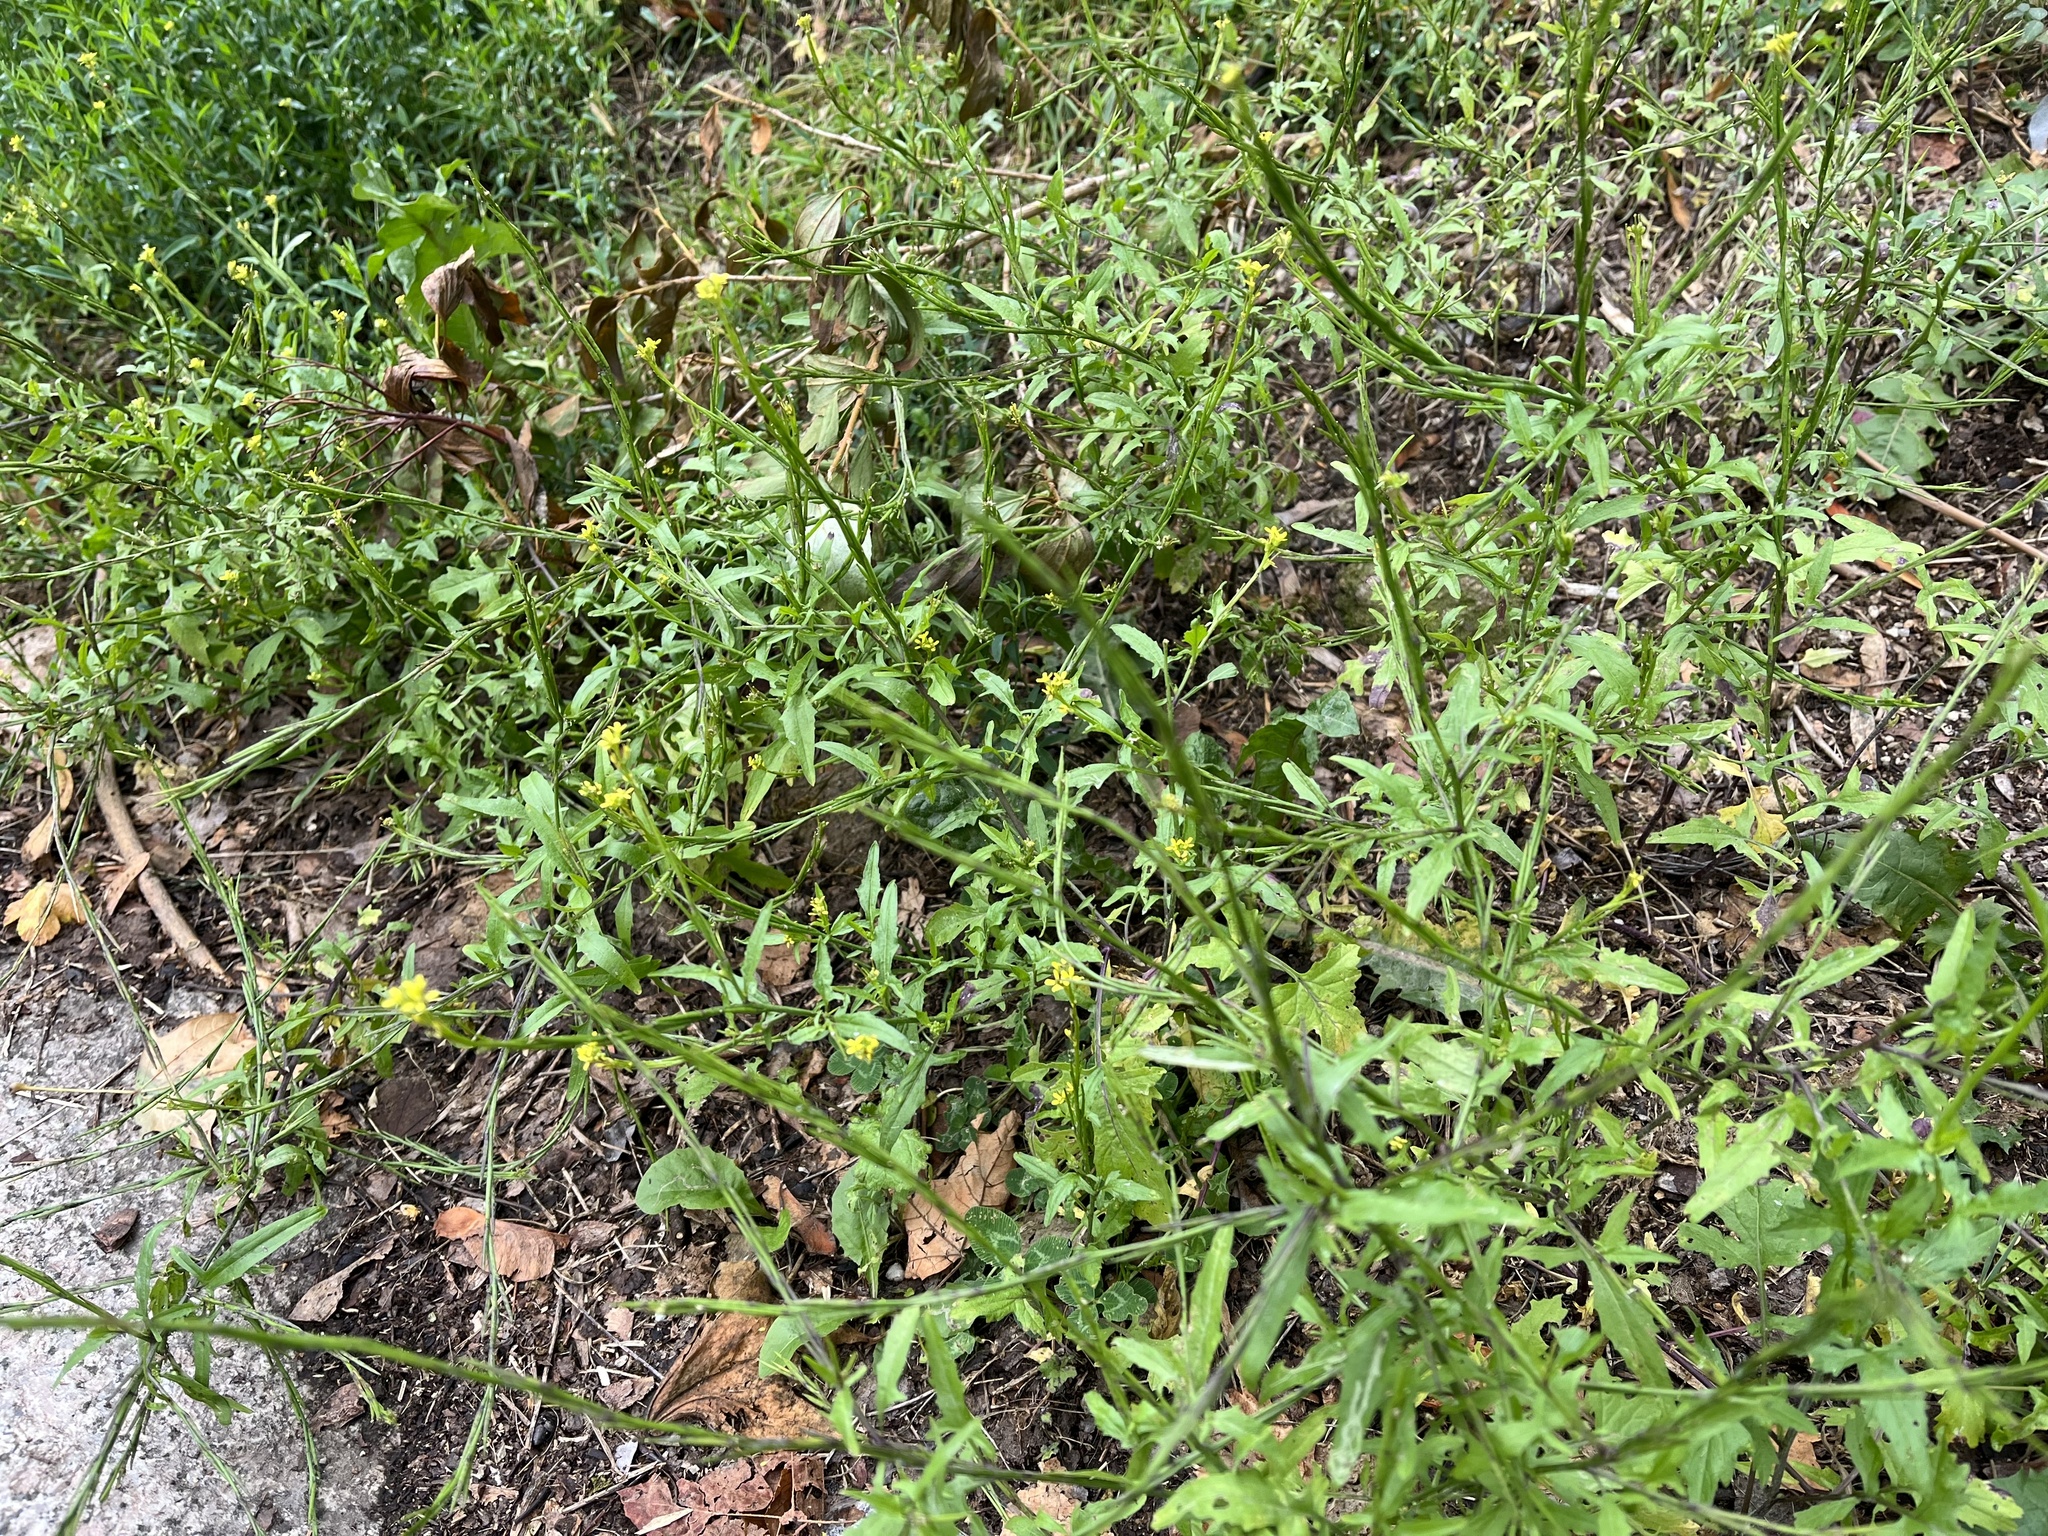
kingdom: Plantae
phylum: Tracheophyta
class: Magnoliopsida
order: Brassicales
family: Brassicaceae
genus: Sisymbrium
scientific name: Sisymbrium officinale
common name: Hedge mustard
